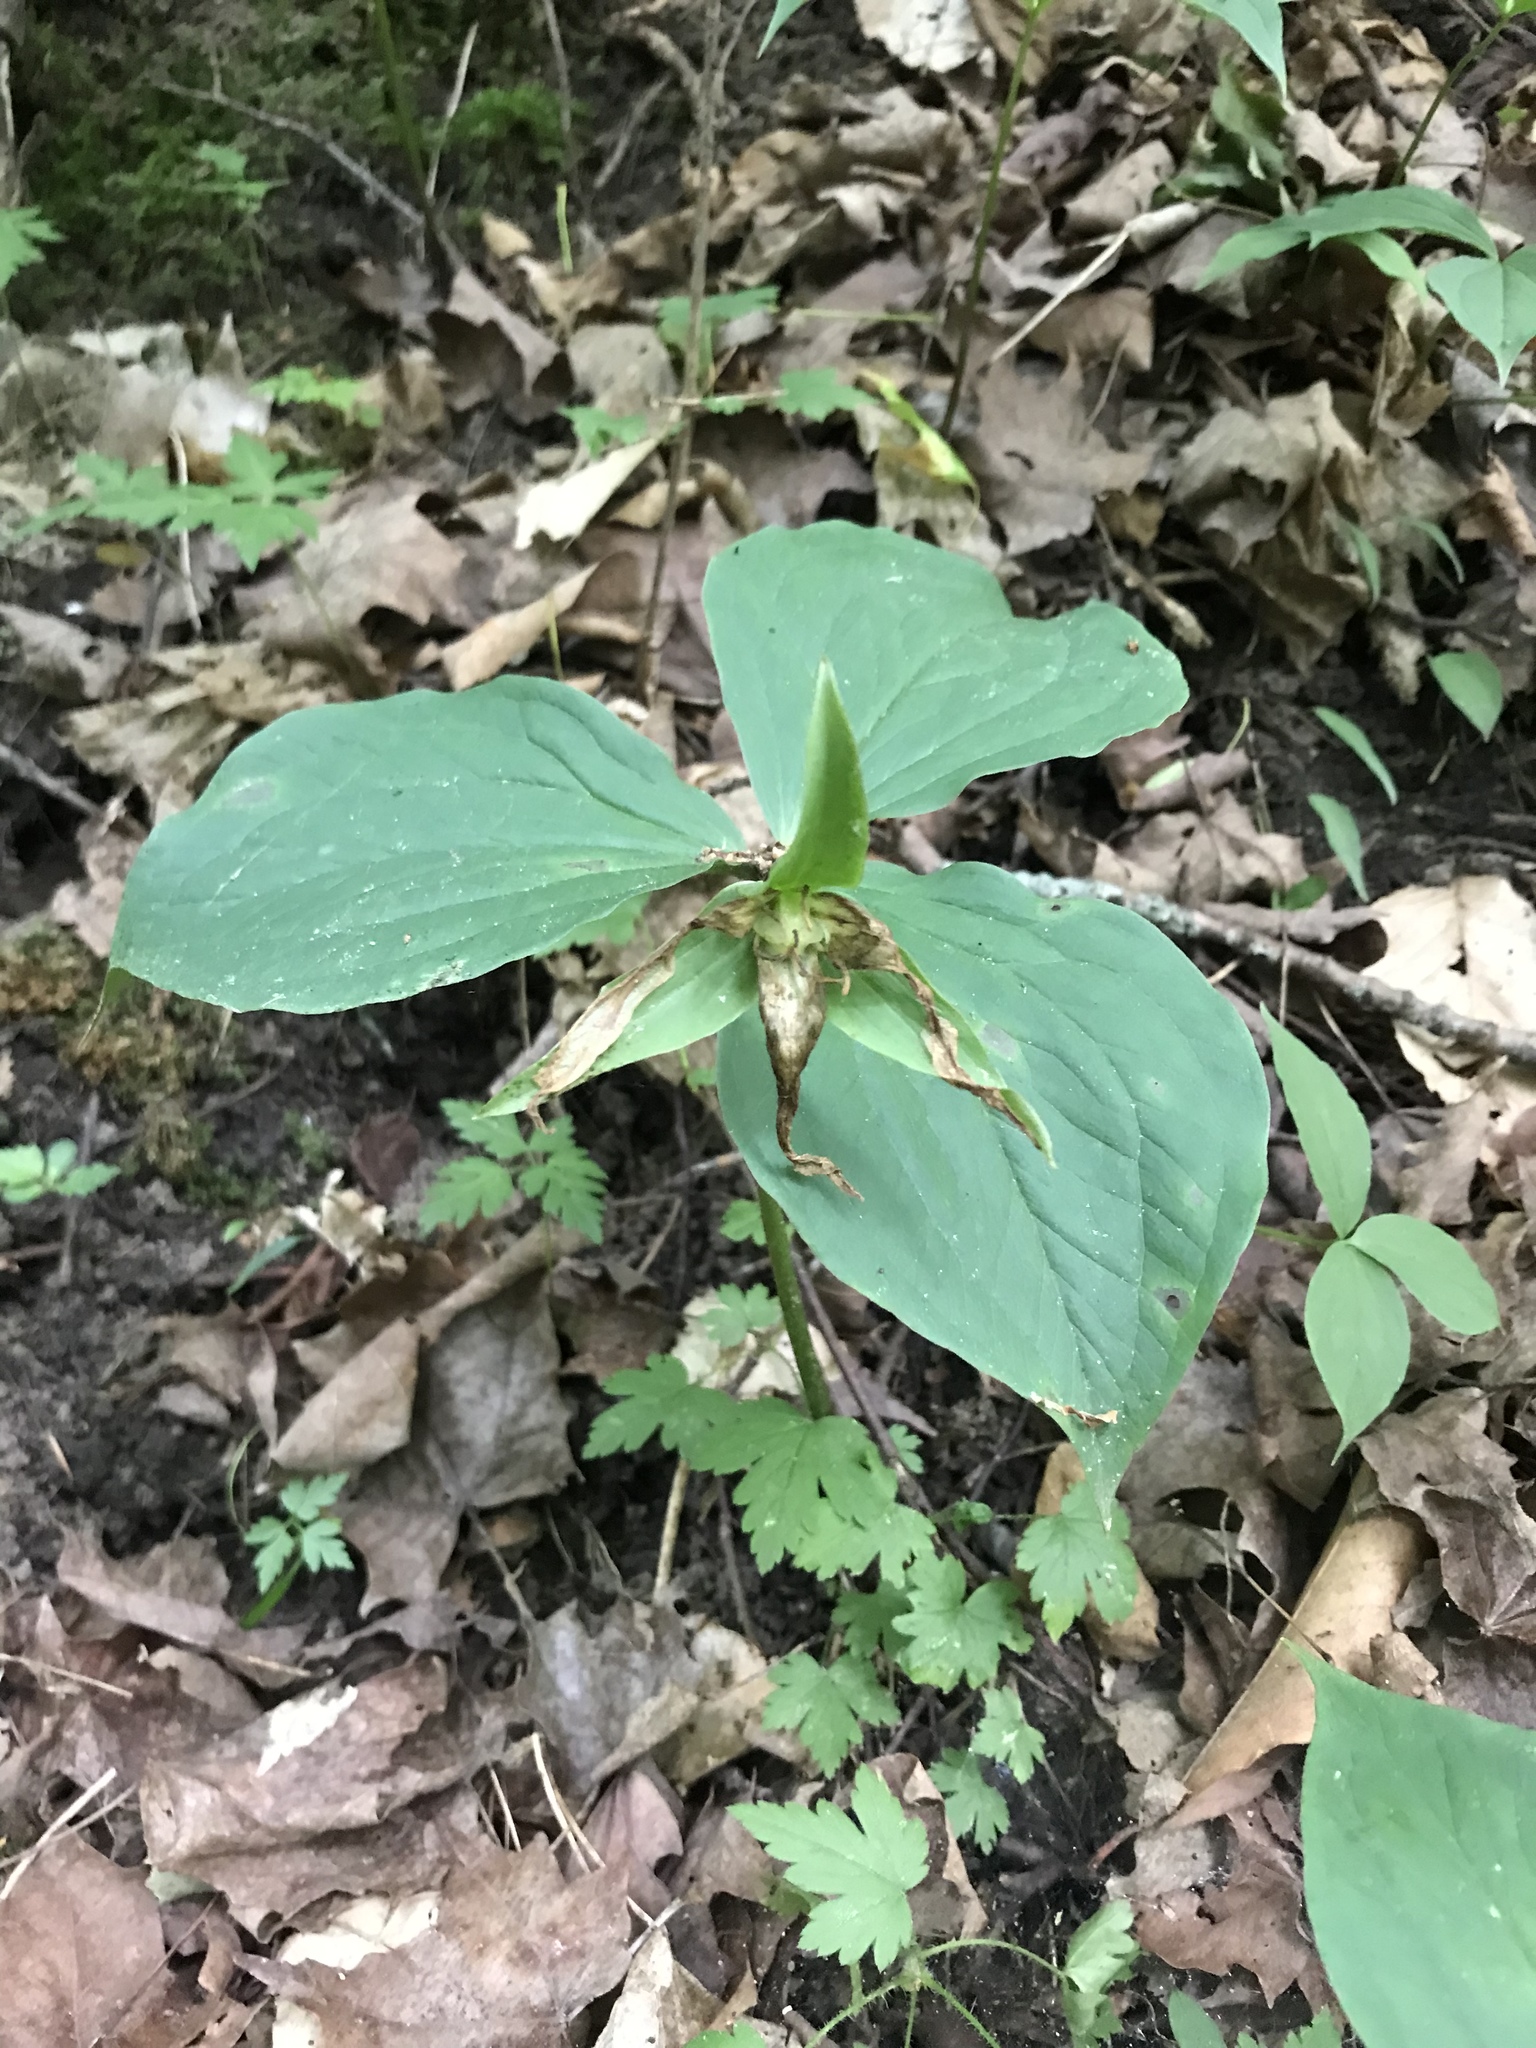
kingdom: Plantae
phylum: Tracheophyta
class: Liliopsida
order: Liliales
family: Melanthiaceae
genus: Trillium
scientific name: Trillium grandiflorum
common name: Great white trillium
